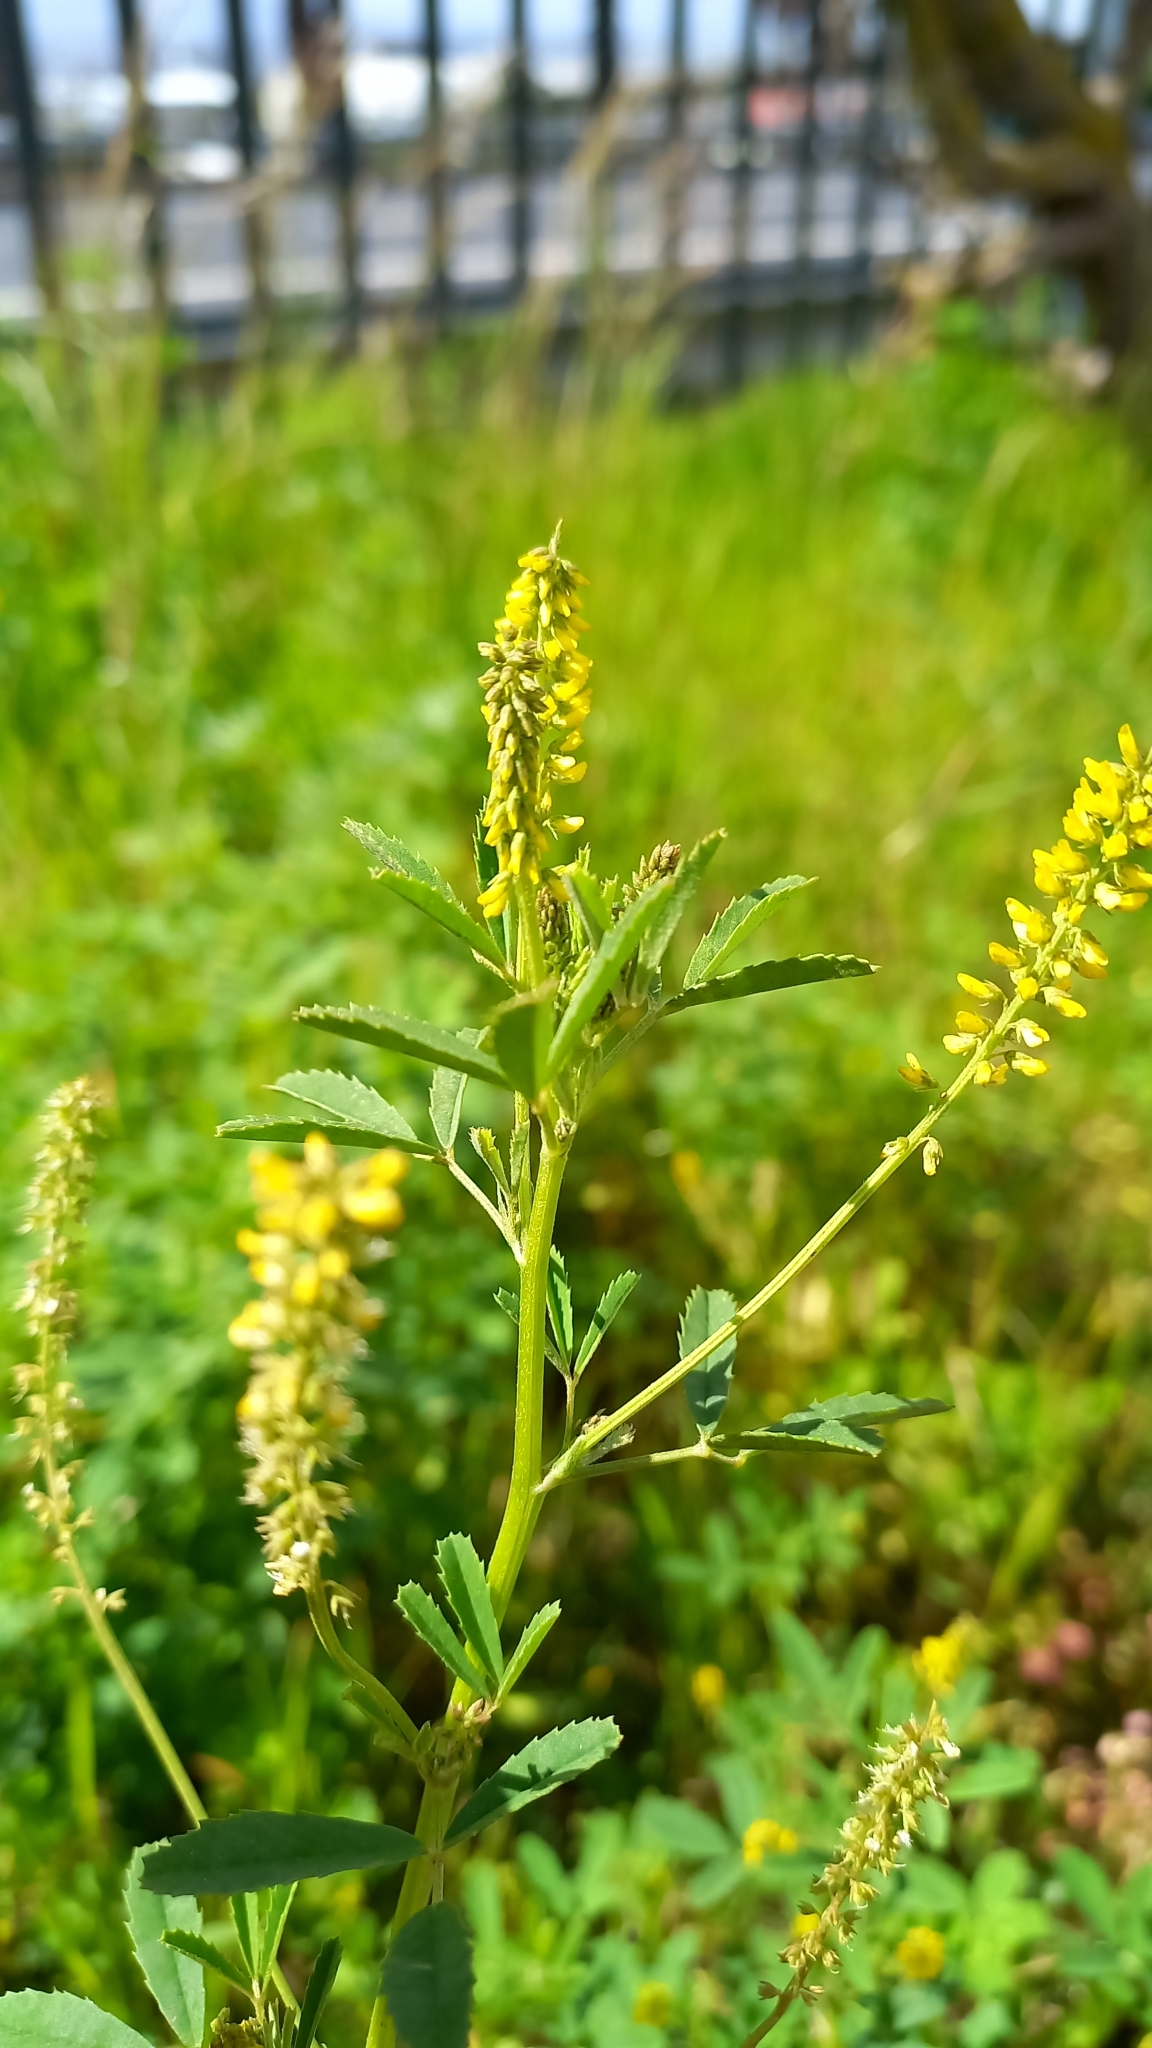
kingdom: Plantae
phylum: Tracheophyta
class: Magnoliopsida
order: Fabales
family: Fabaceae
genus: Melilotus
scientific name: Melilotus indicus
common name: Small melilot
